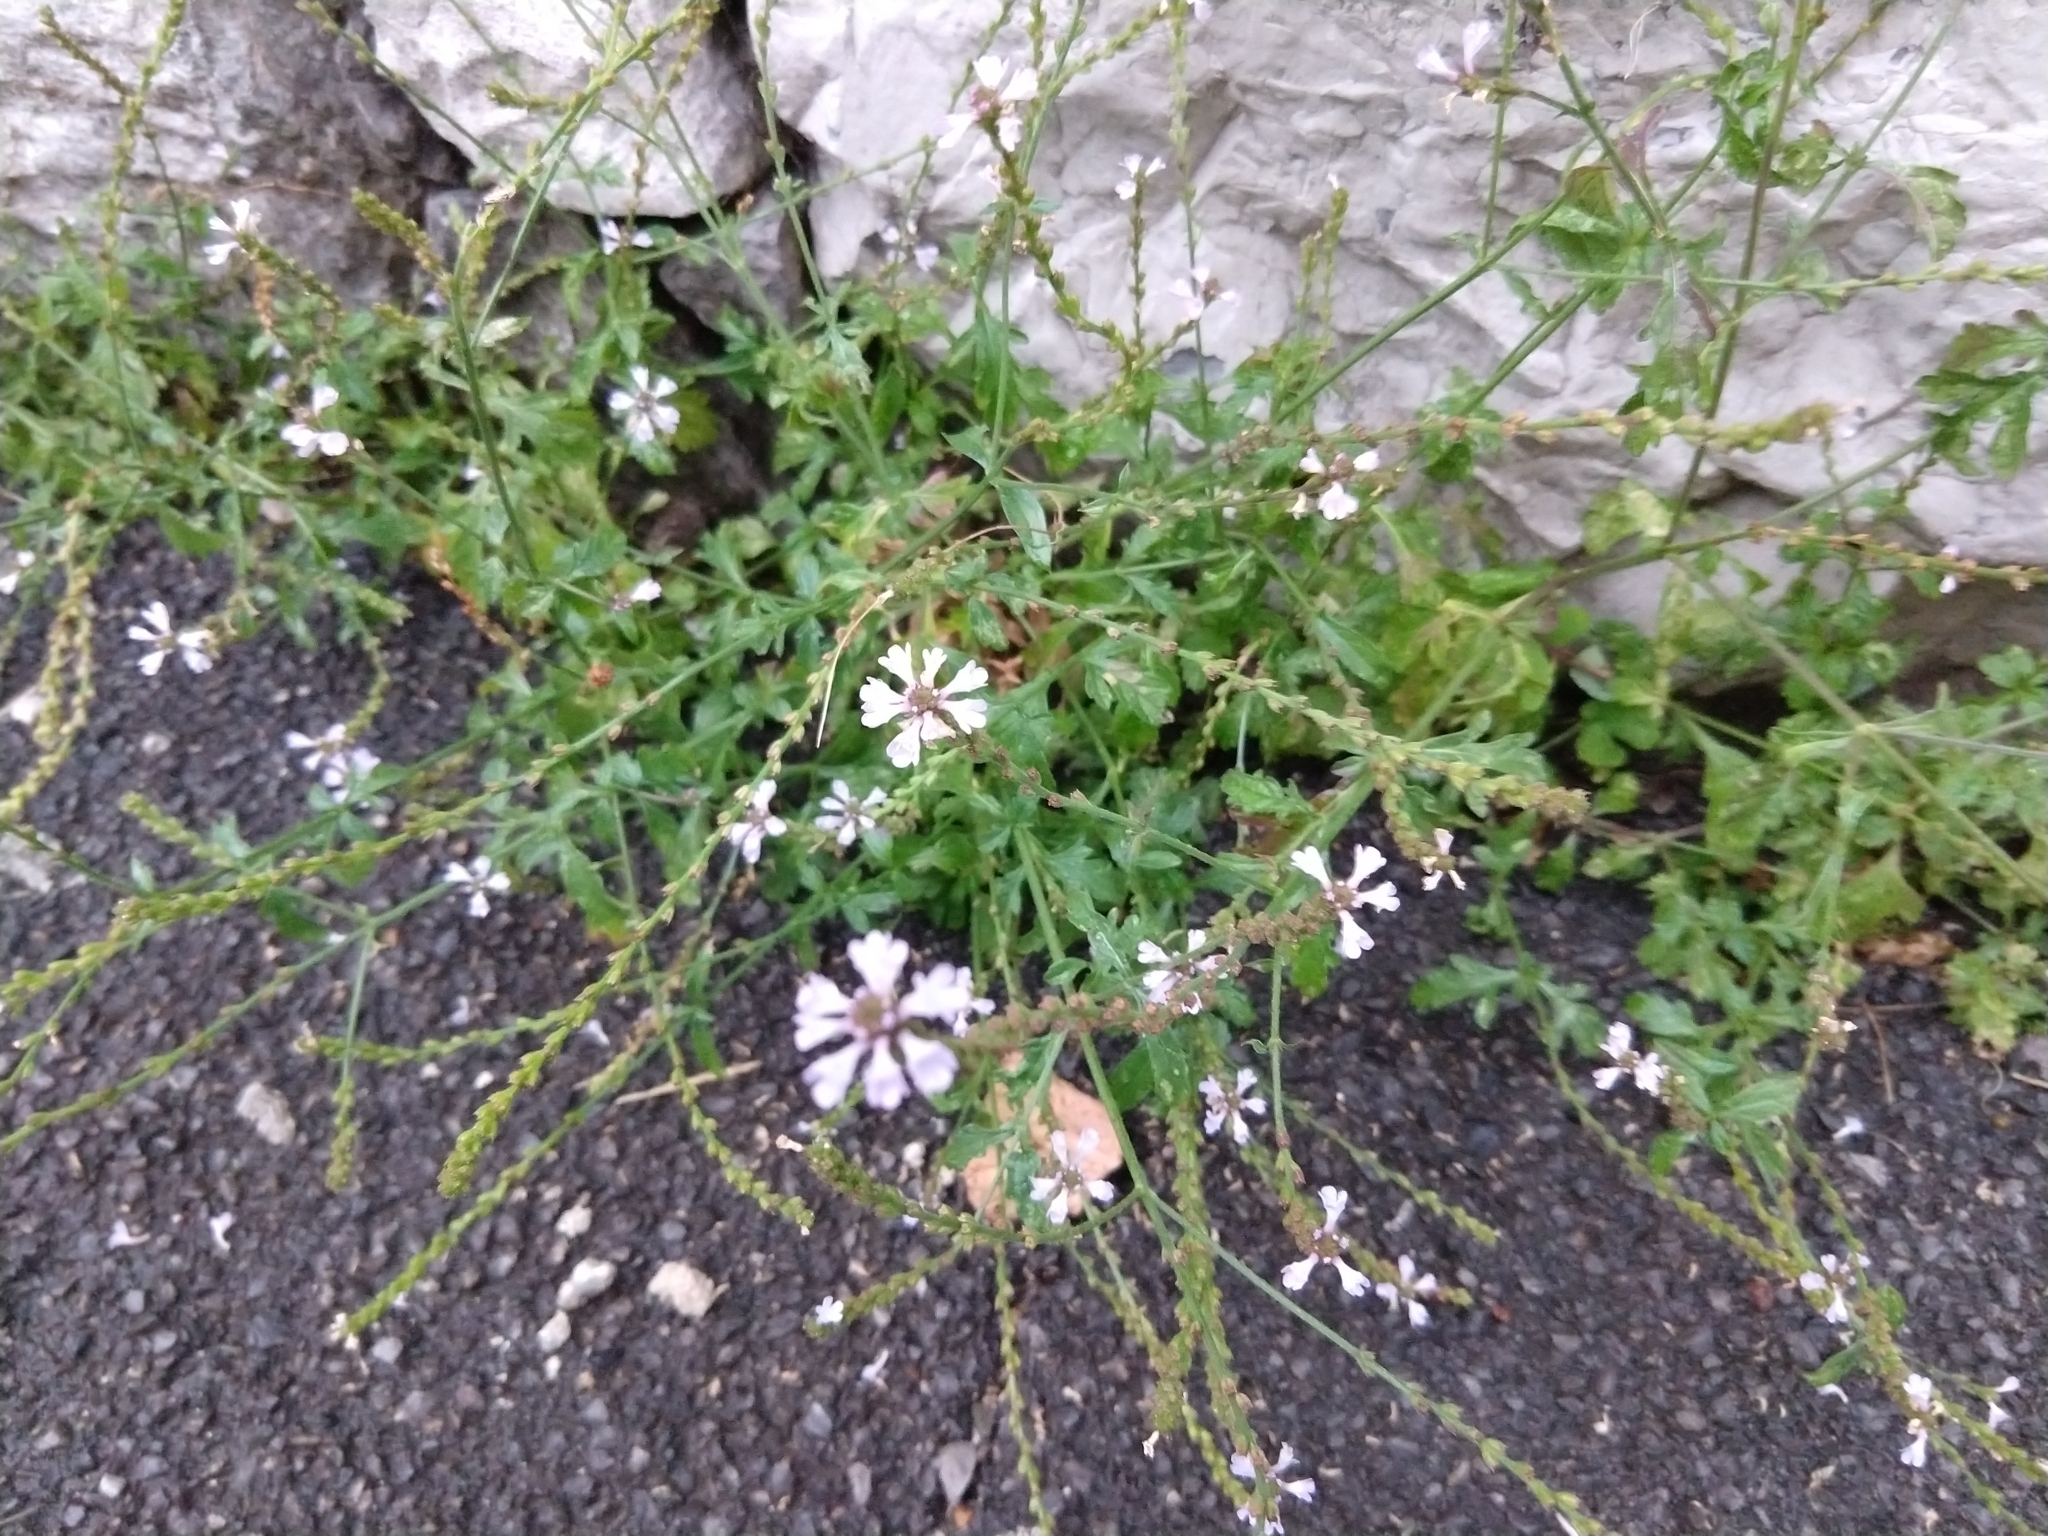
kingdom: Plantae
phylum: Tracheophyta
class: Magnoliopsida
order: Lamiales
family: Verbenaceae
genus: Verbena
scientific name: Verbena officinalis
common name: Vervain
